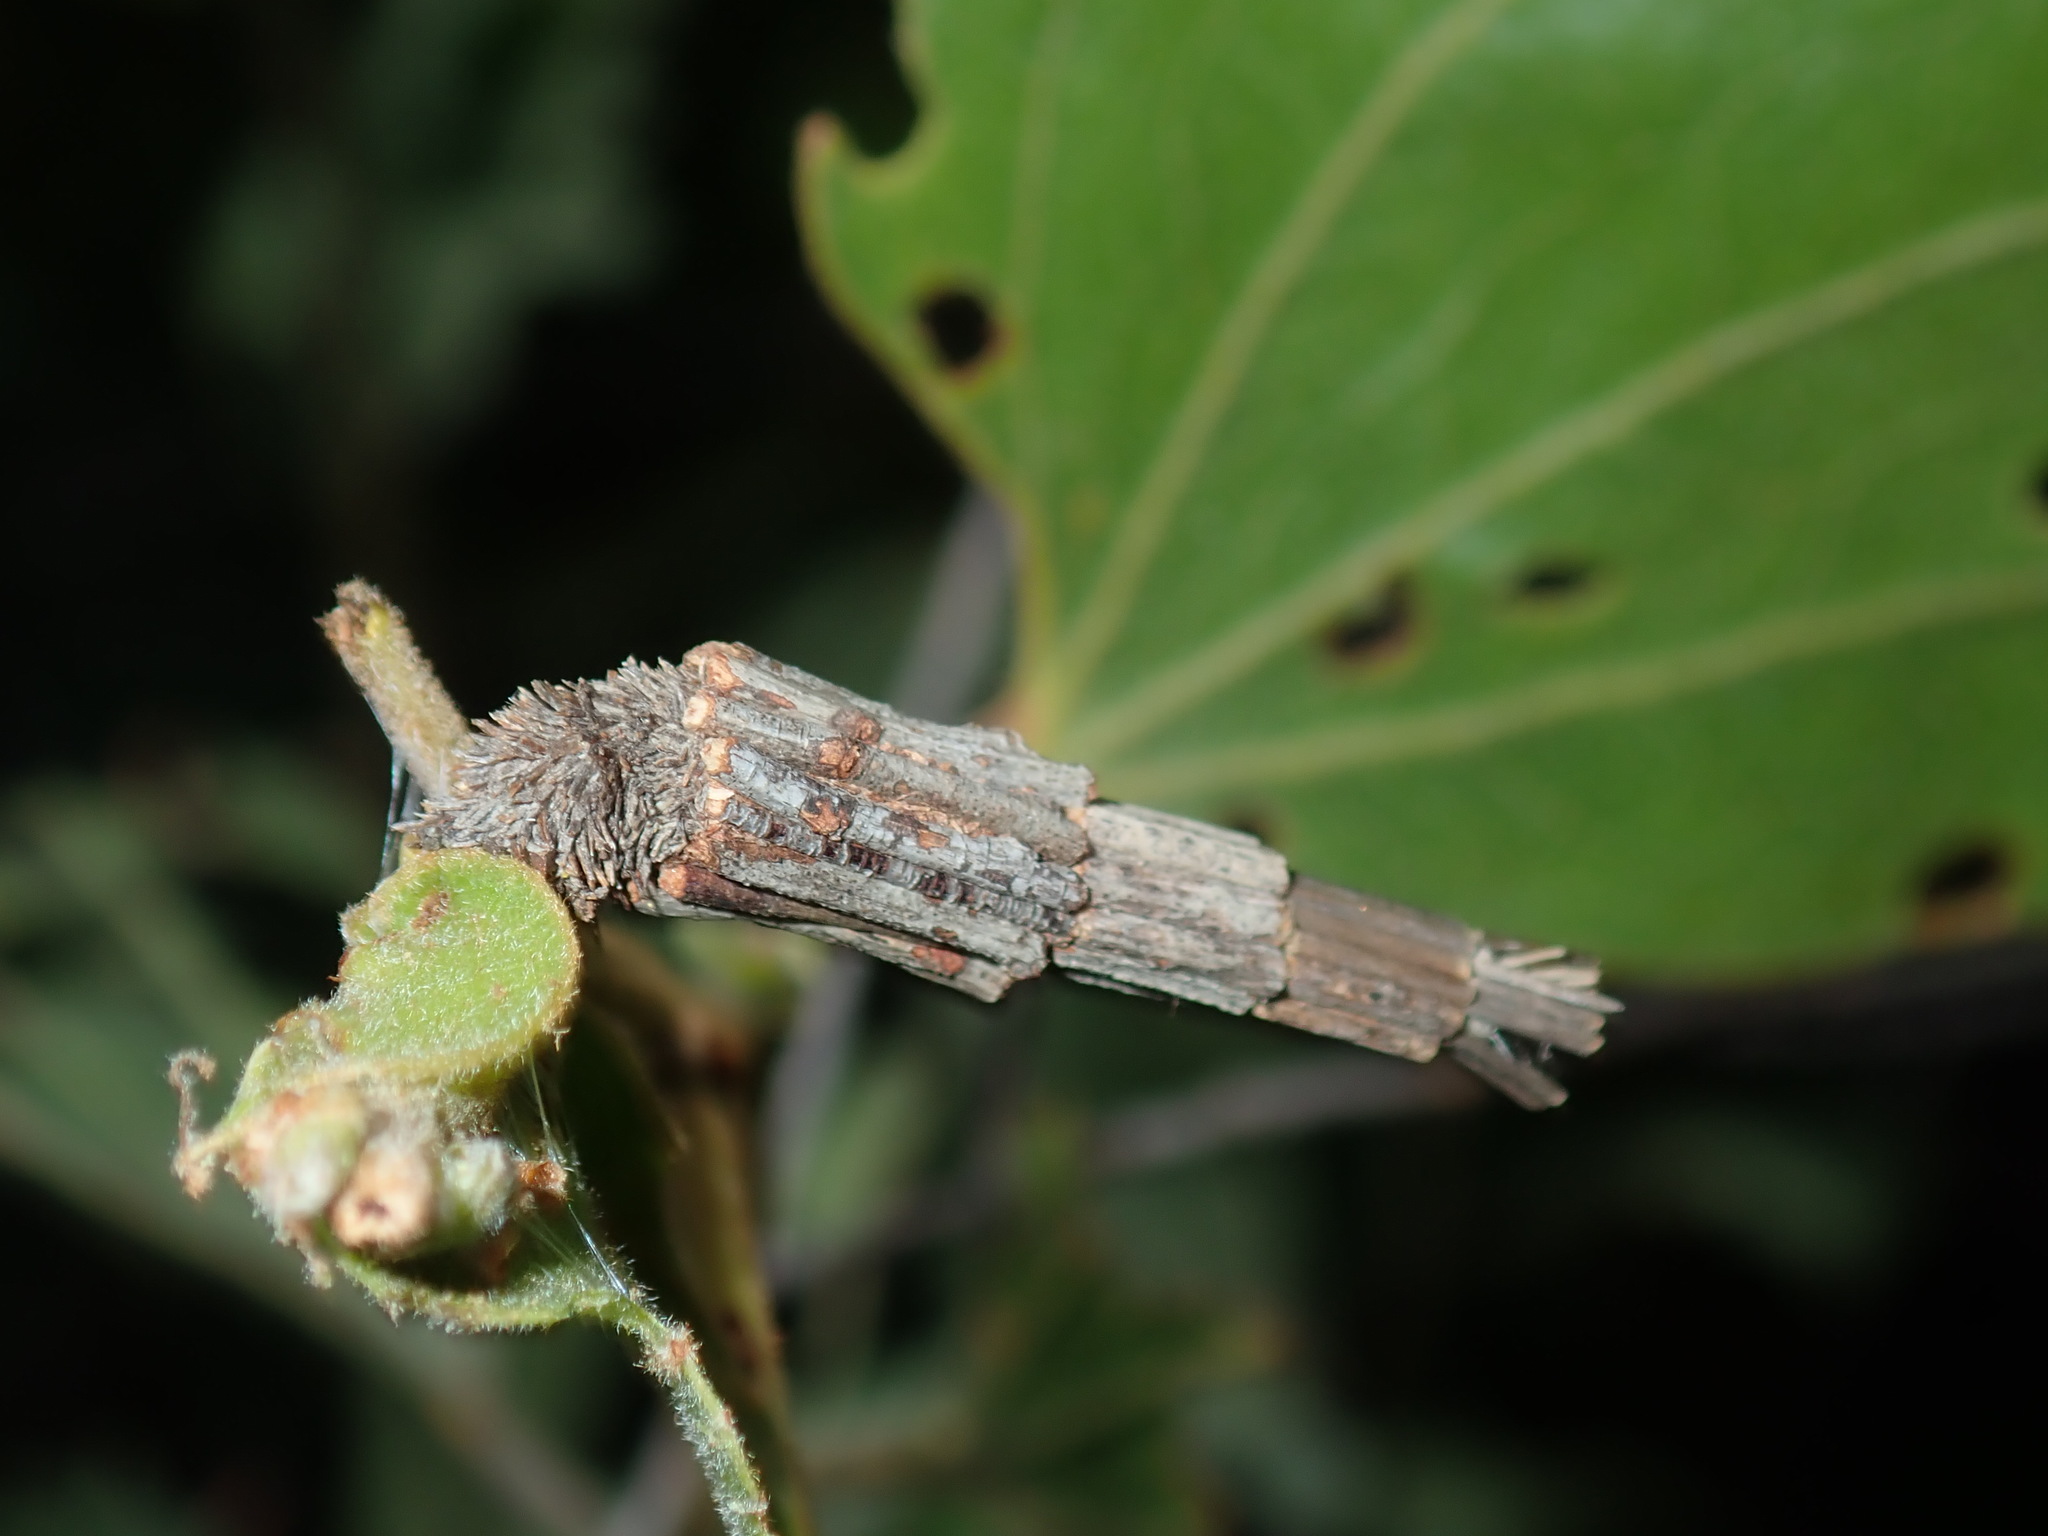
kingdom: Animalia
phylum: Arthropoda
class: Insecta
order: Lepidoptera
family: Psychidae
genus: Lepidoscia
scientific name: Lepidoscia arctiella
